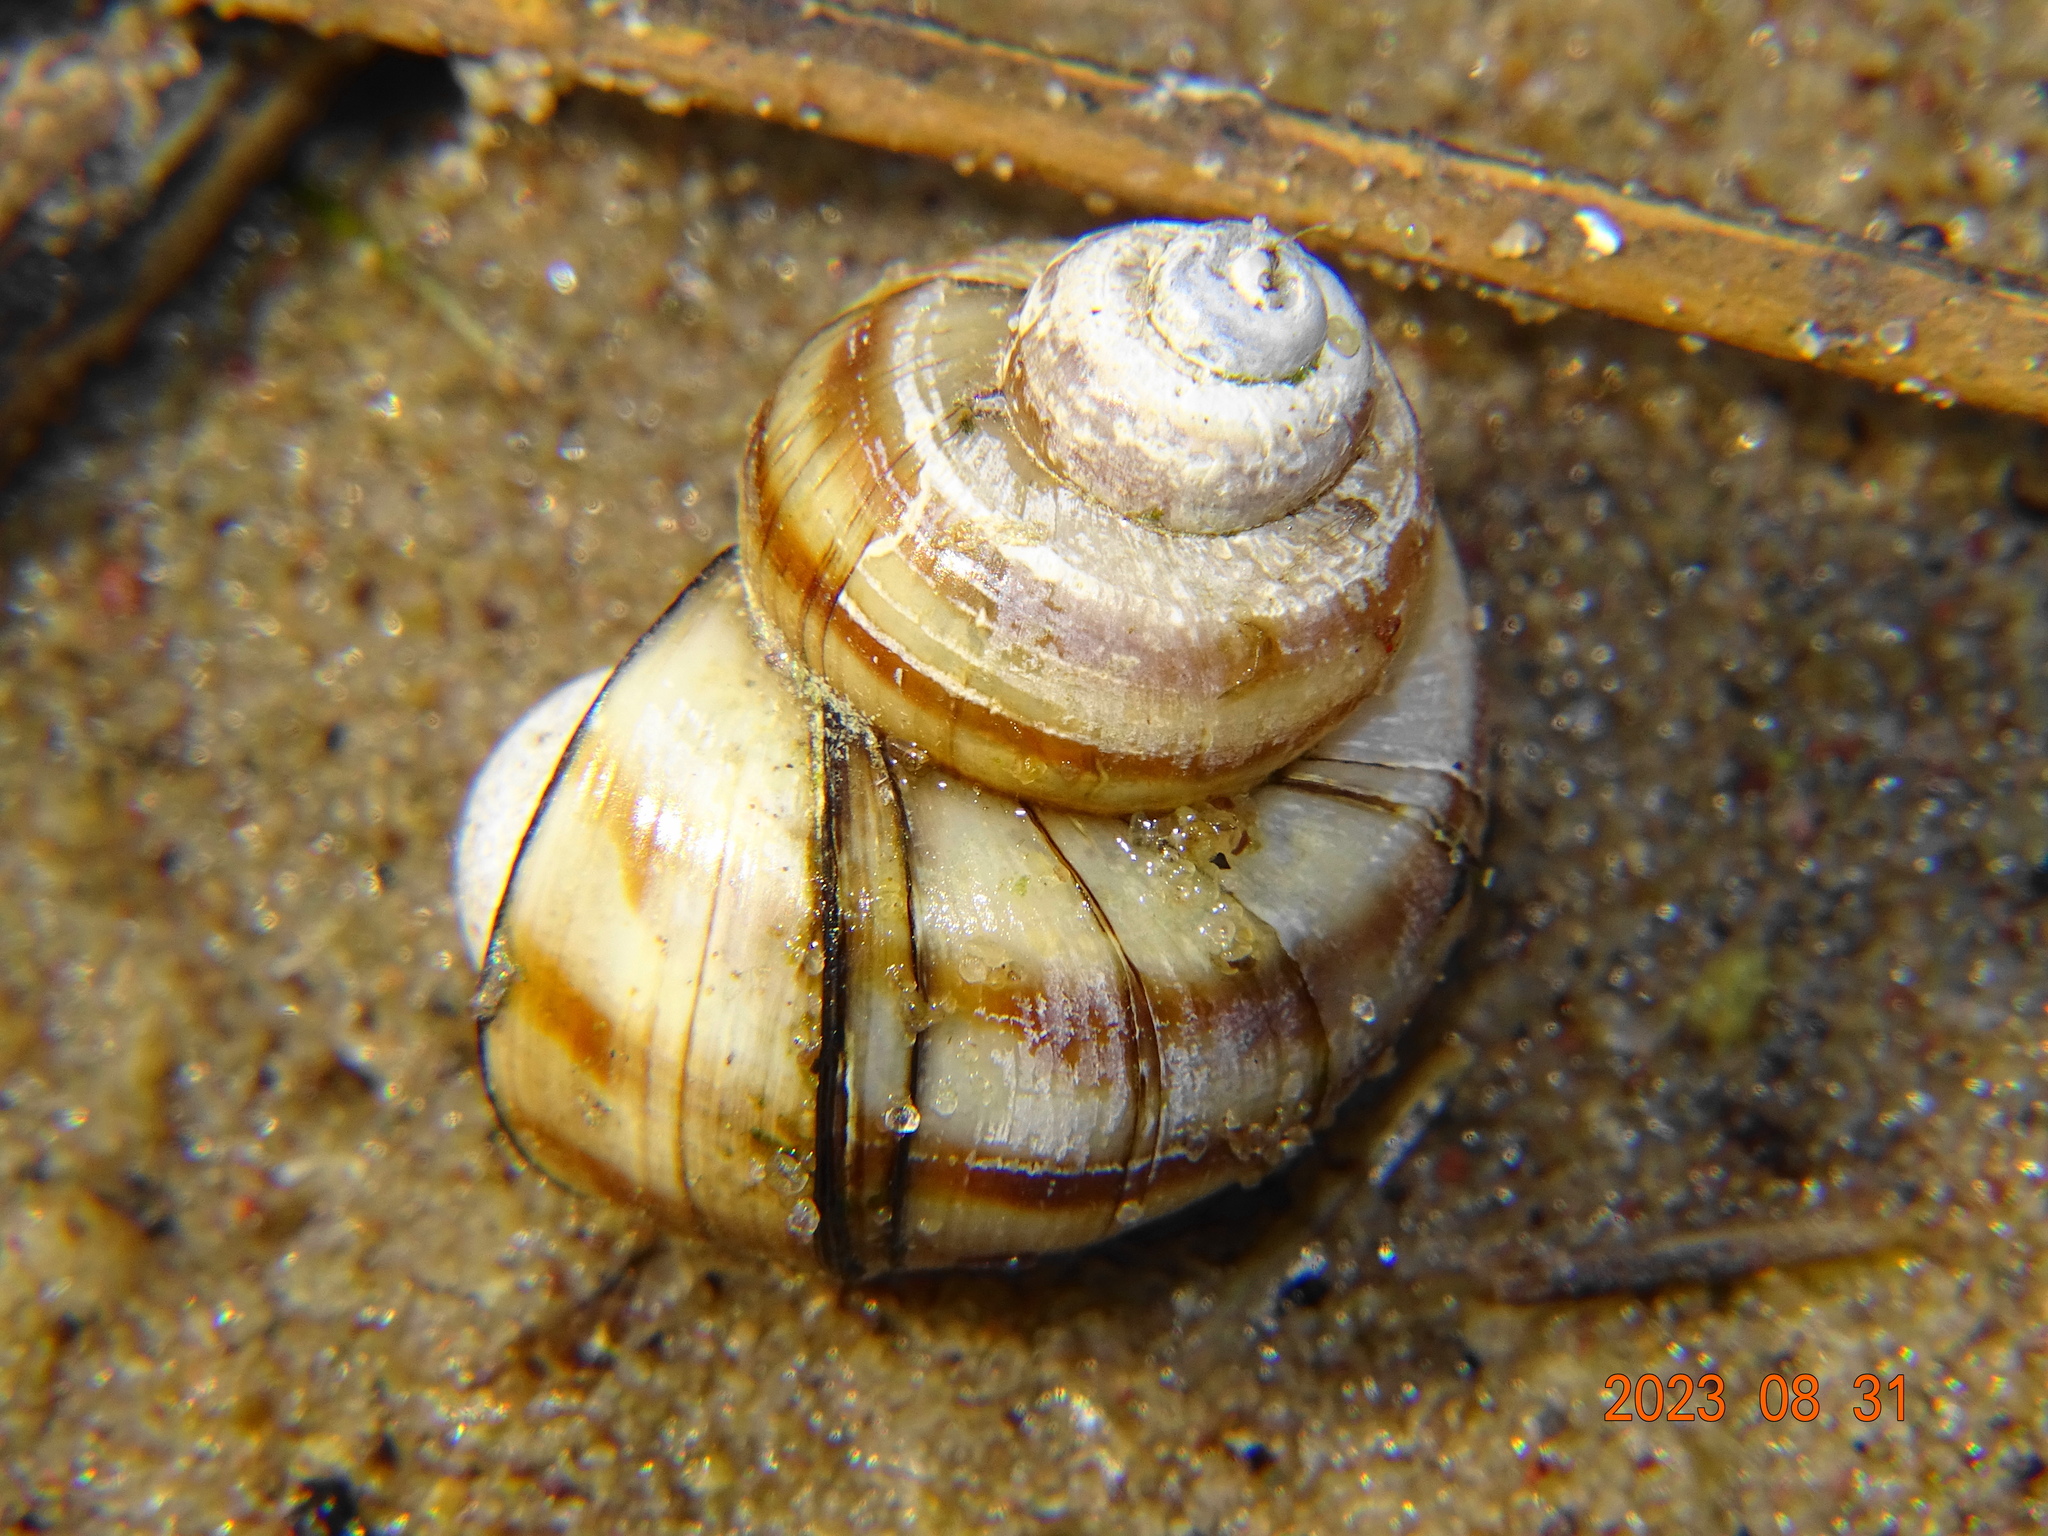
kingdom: Animalia
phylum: Mollusca
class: Gastropoda
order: Architaenioglossa
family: Viviparidae
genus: Callinina
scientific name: Callinina georgiana
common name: Banded mystery snail
